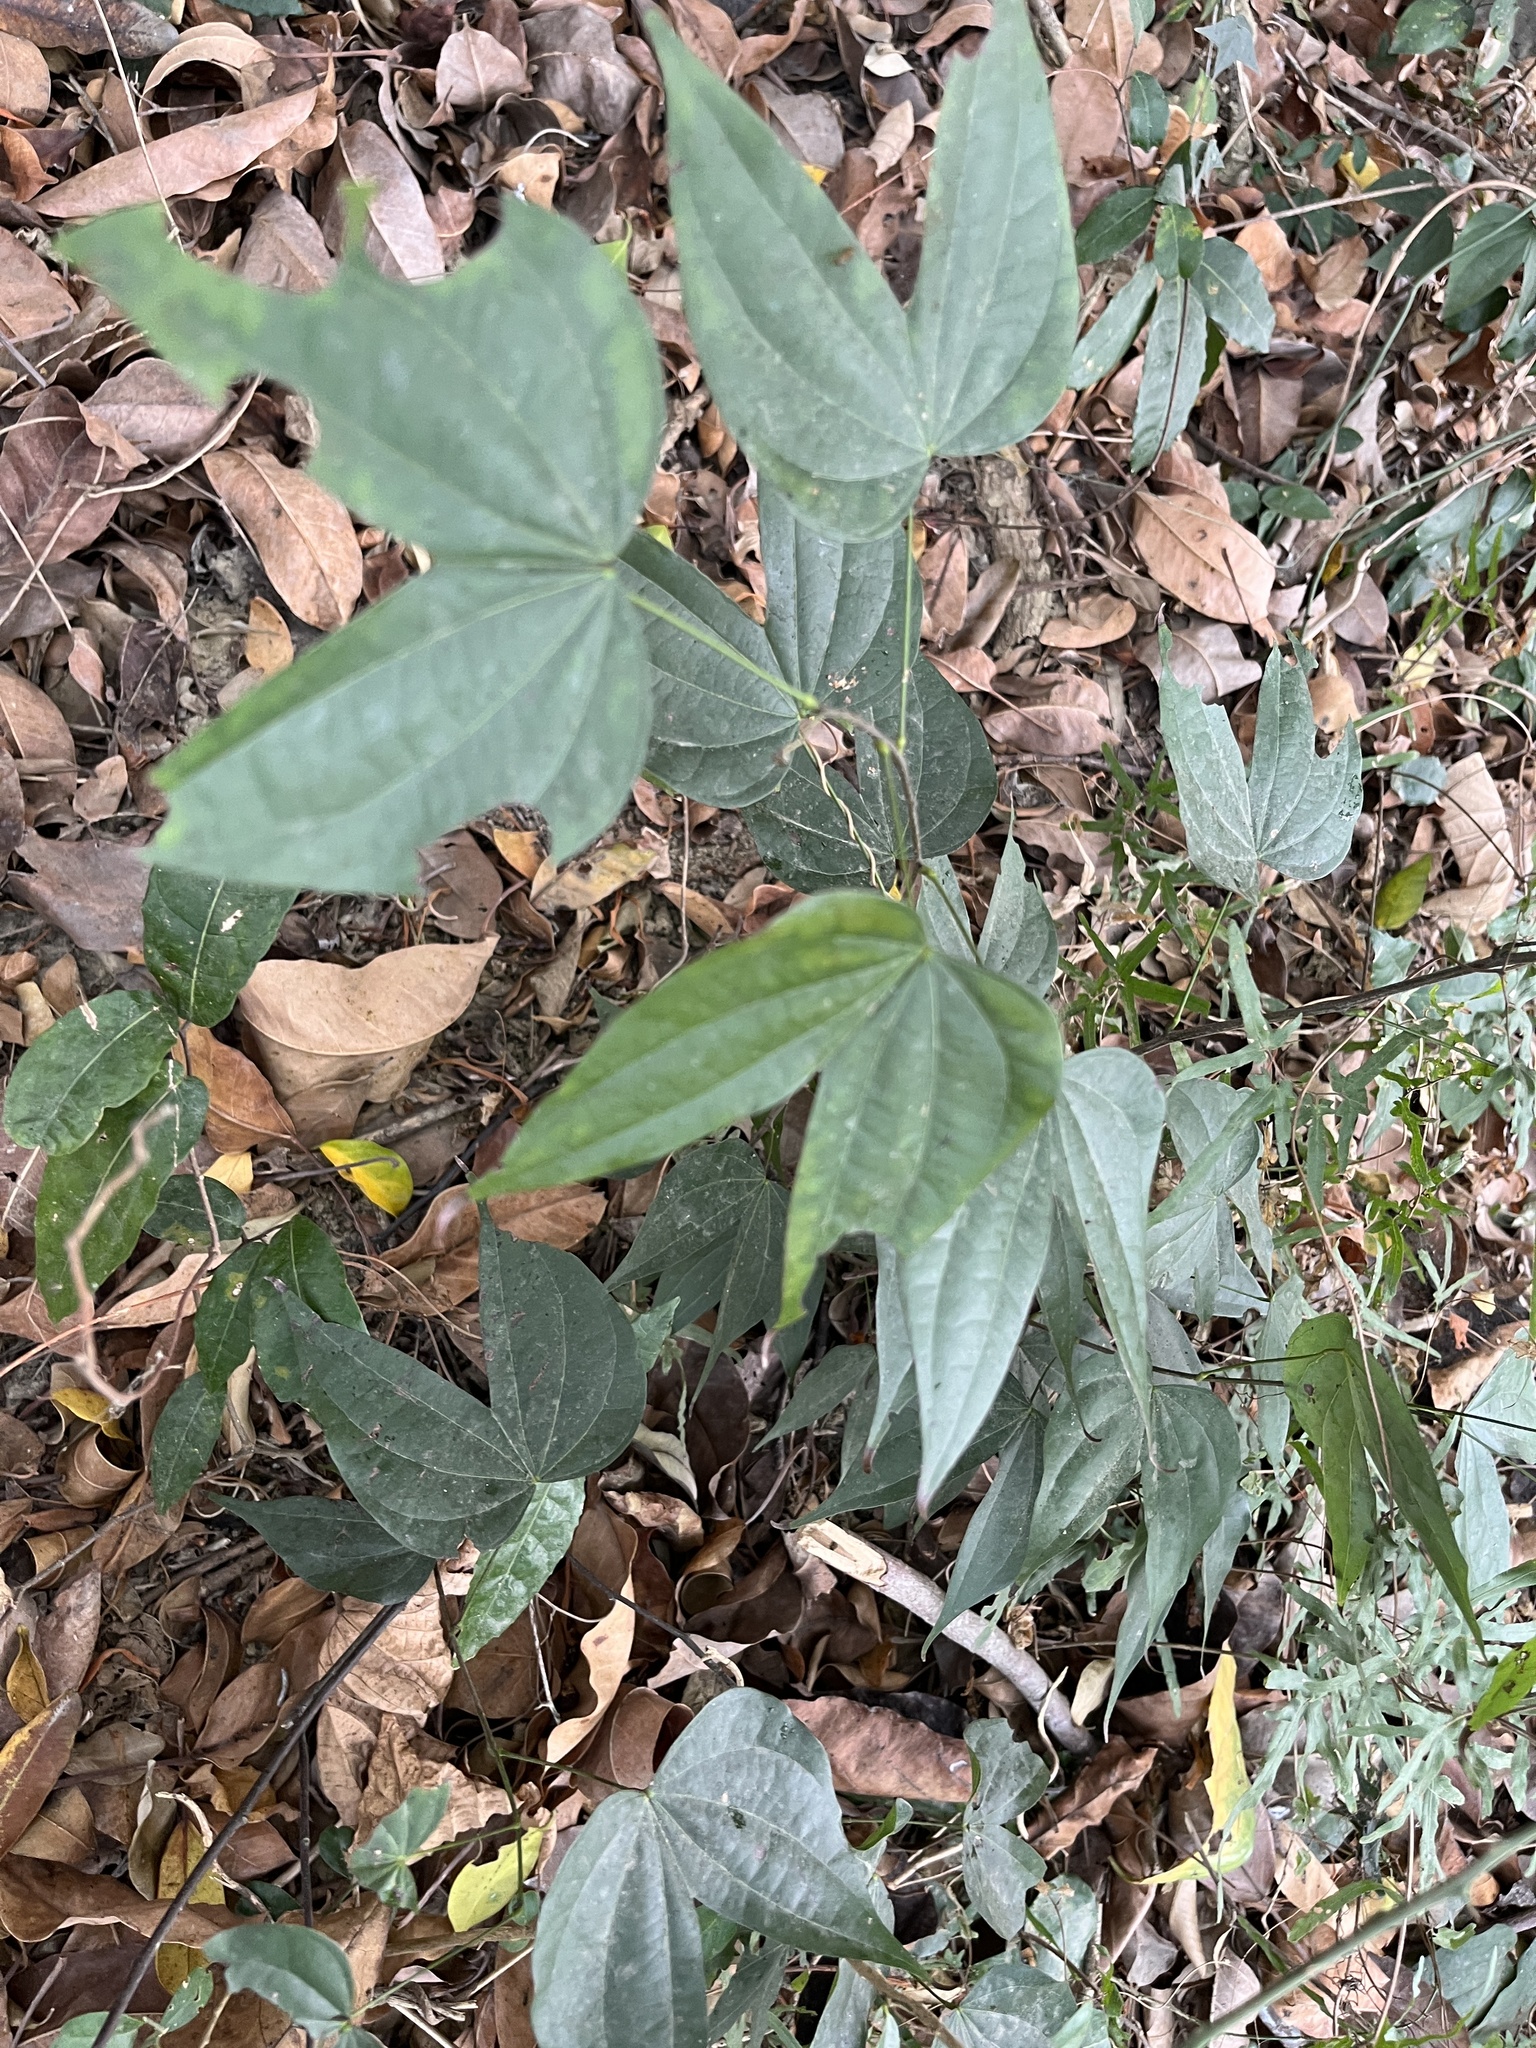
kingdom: Plantae
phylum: Tracheophyta
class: Magnoliopsida
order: Fabales
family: Fabaceae
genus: Phanera
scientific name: Phanera championii
